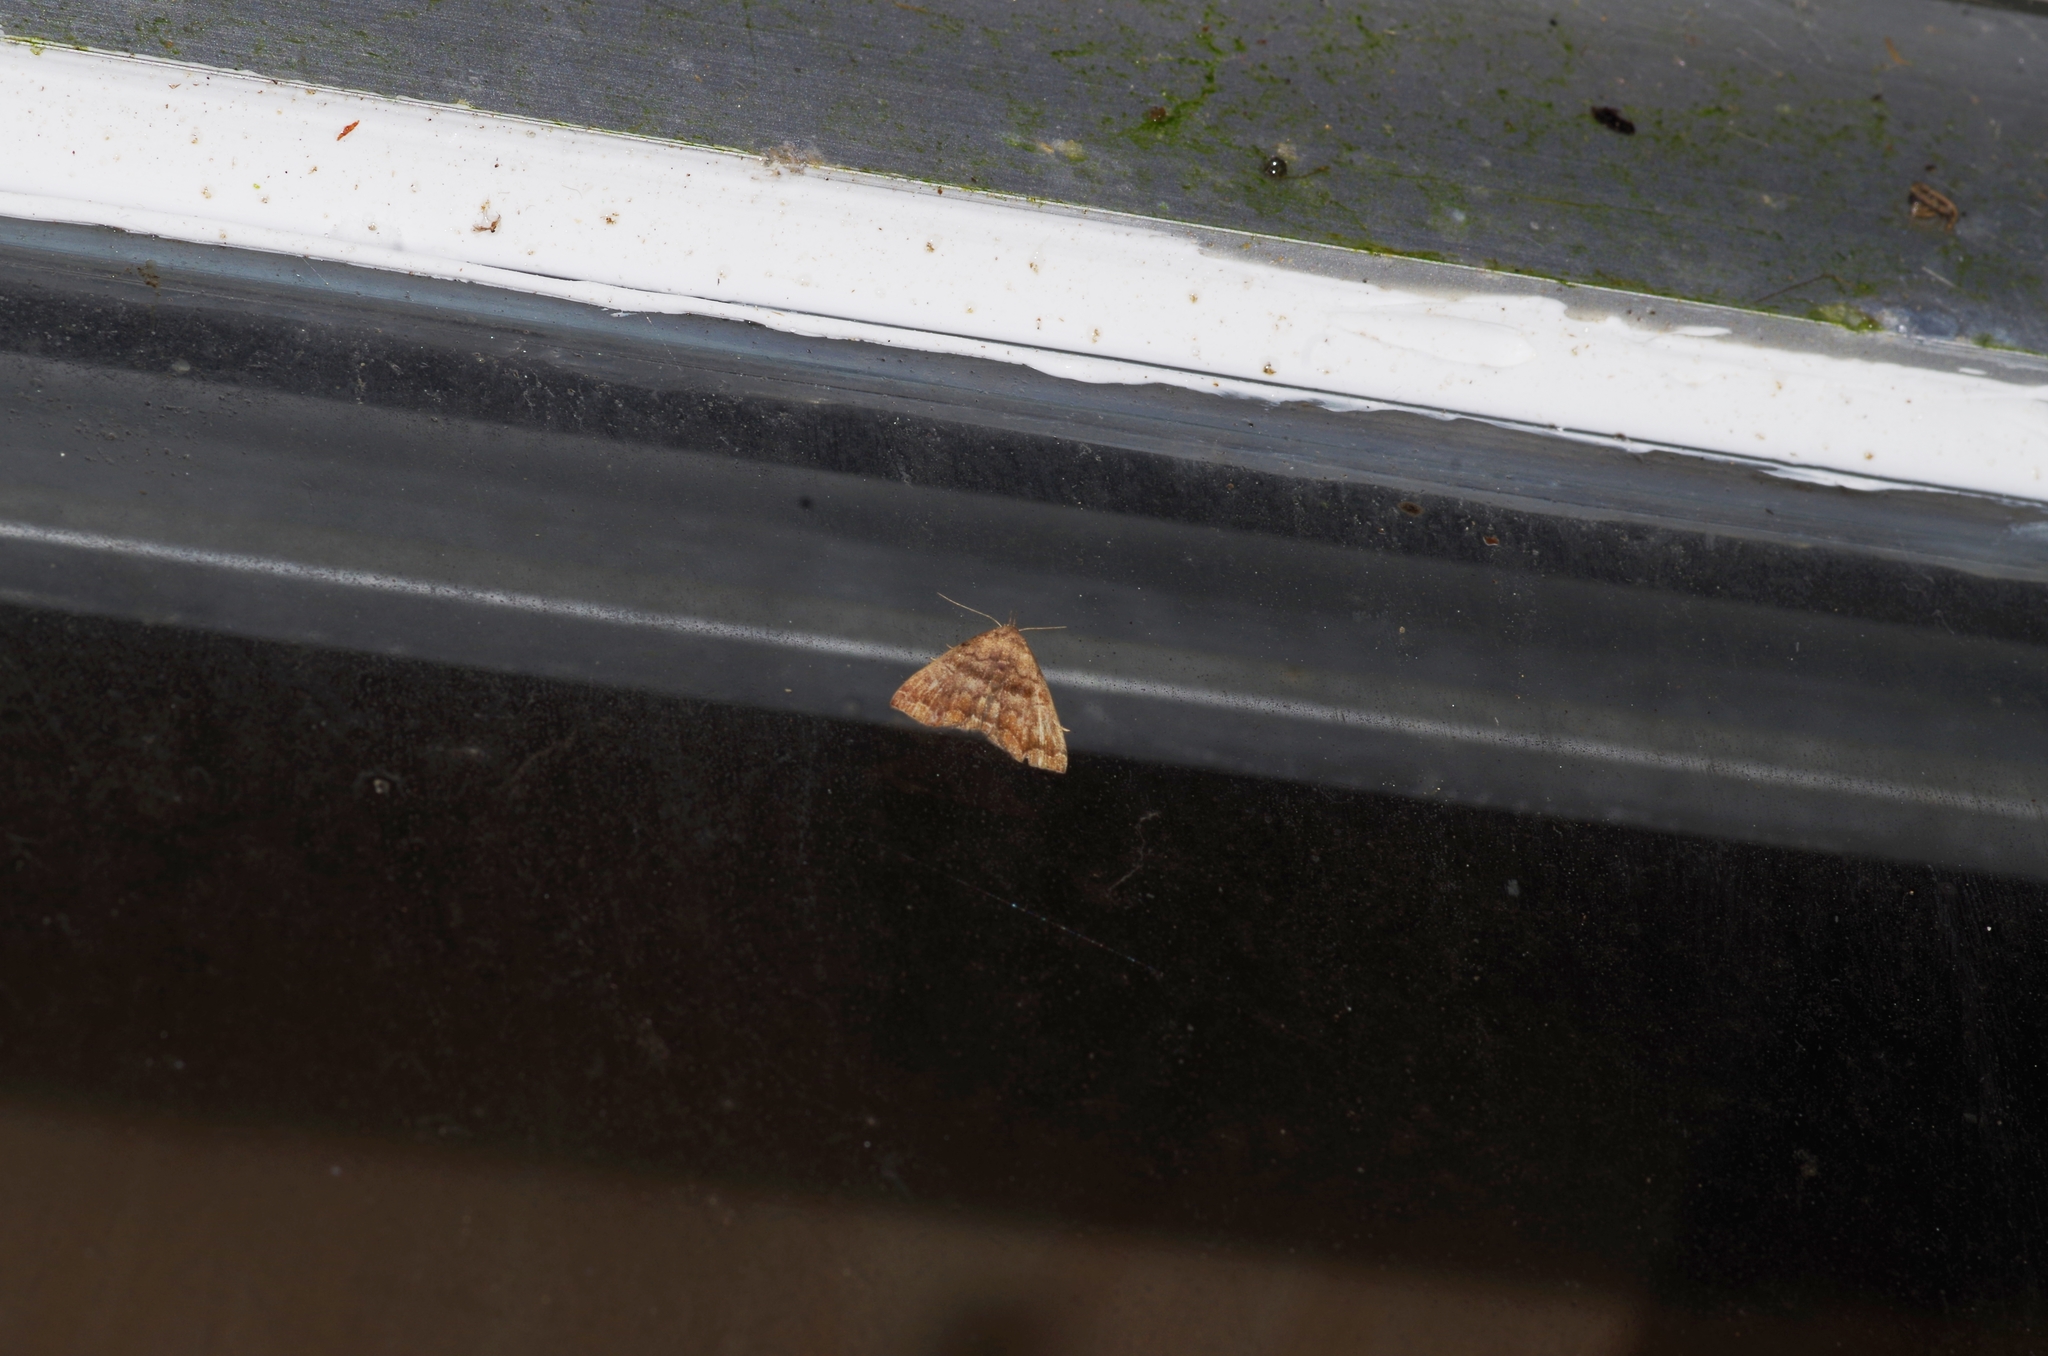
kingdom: Animalia
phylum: Arthropoda
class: Insecta
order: Lepidoptera
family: Erebidae
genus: Polypogon
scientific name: Polypogon Hipoepa fractalis
